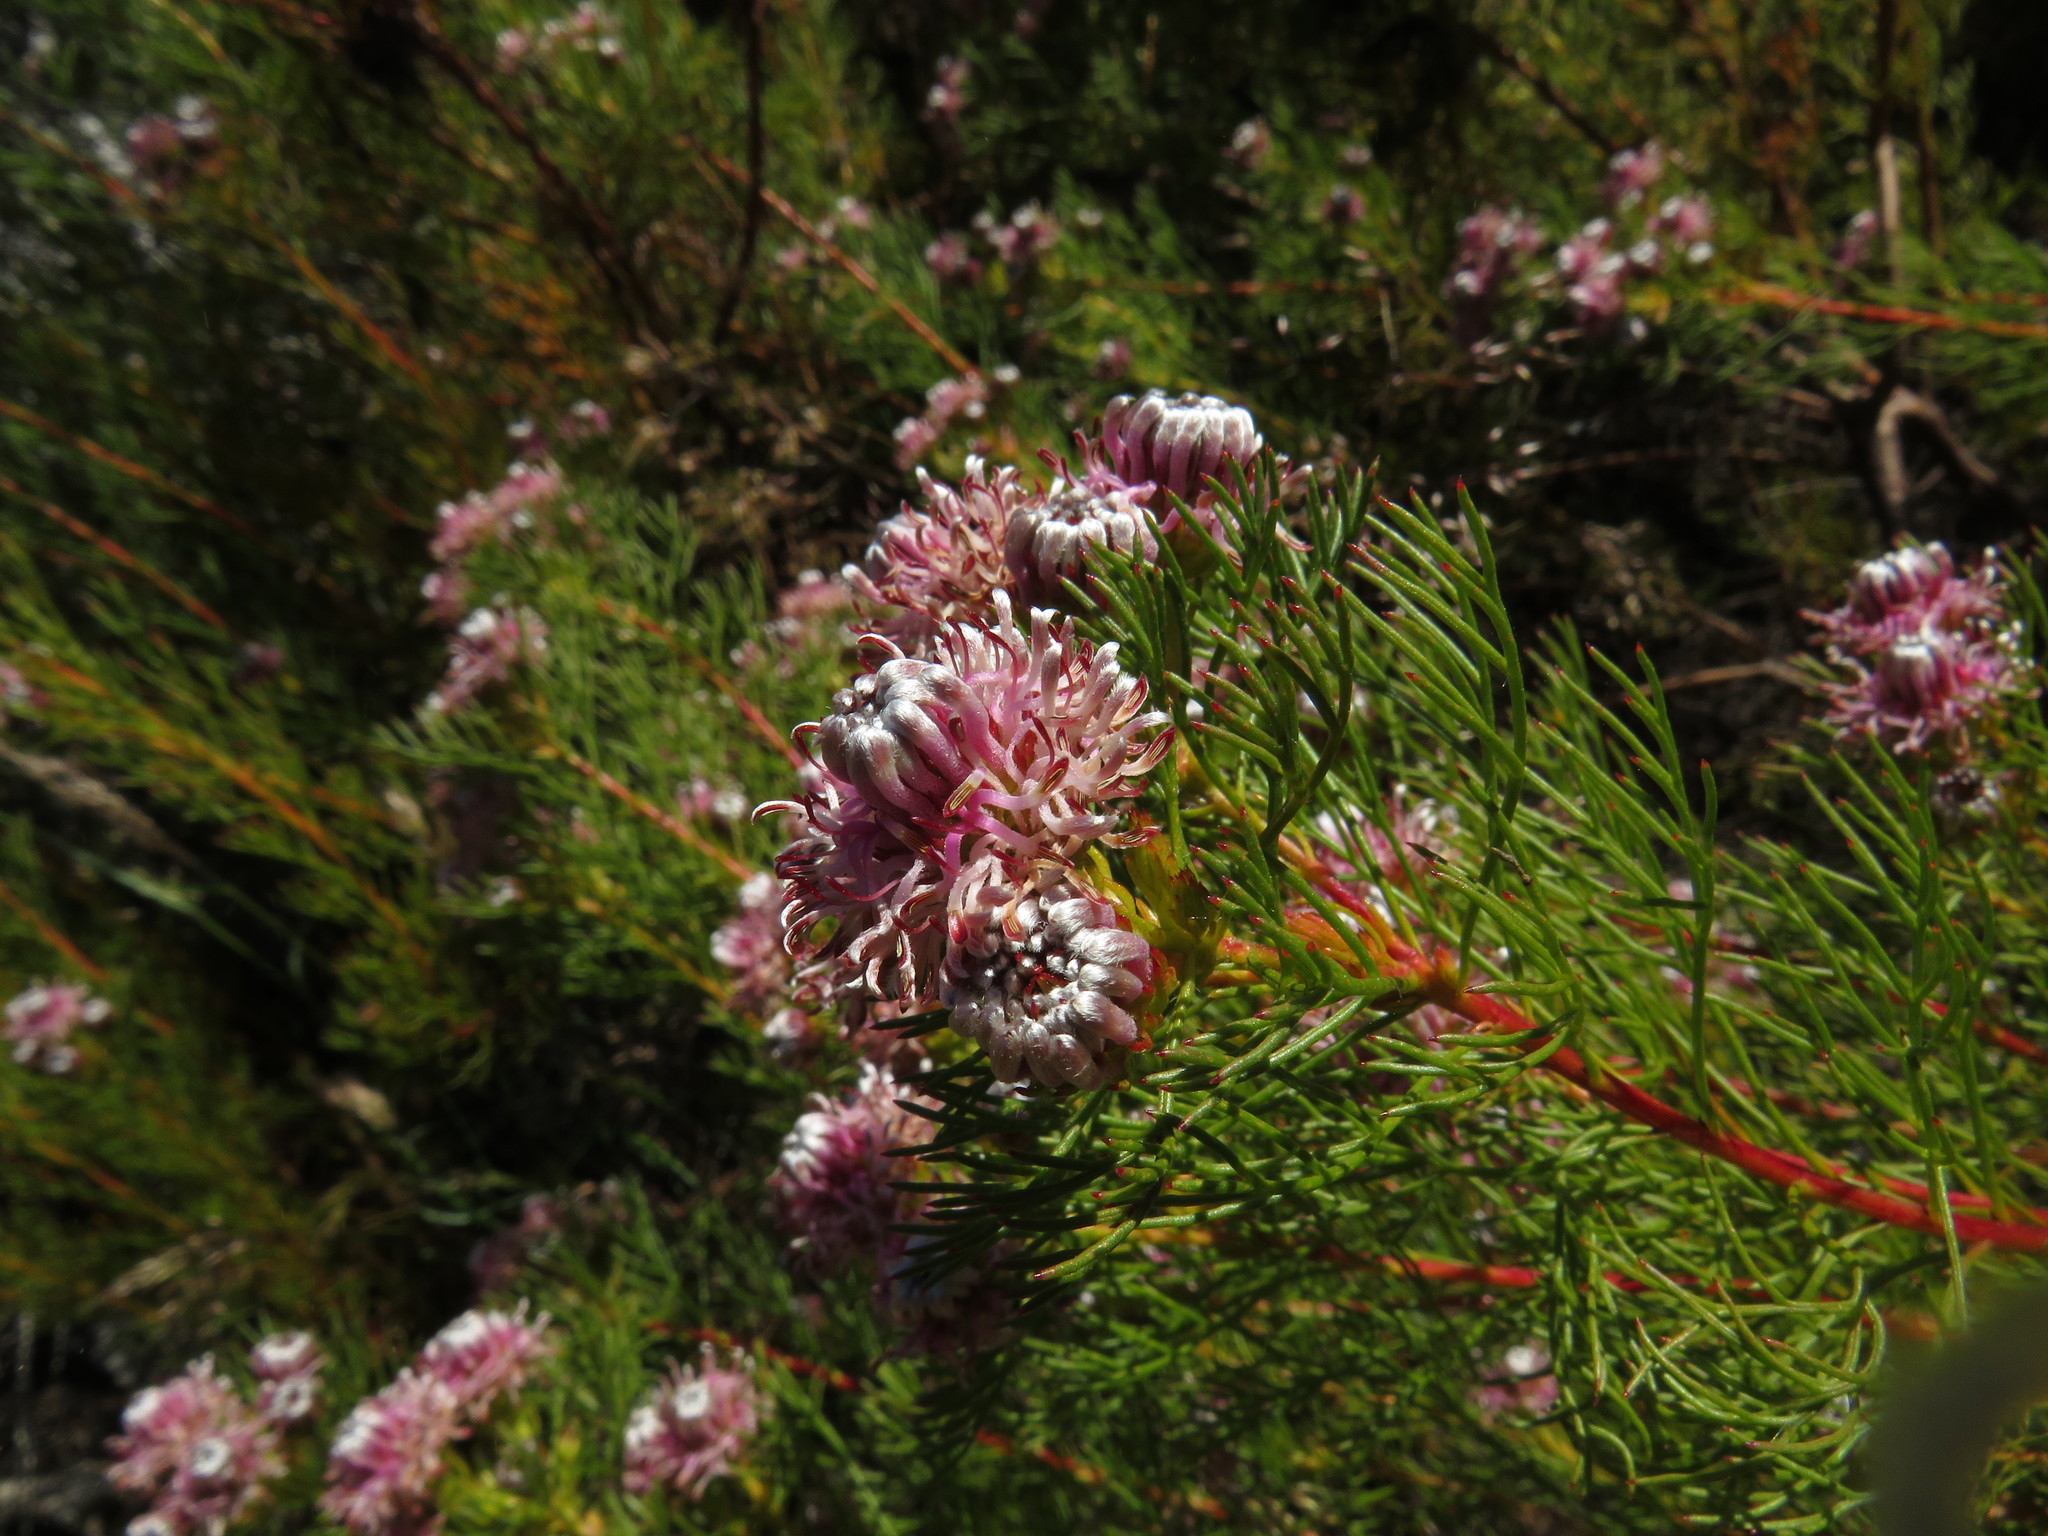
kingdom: Plantae
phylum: Tracheophyta
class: Magnoliopsida
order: Proteales
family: Proteaceae
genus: Serruria
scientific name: Serruria
